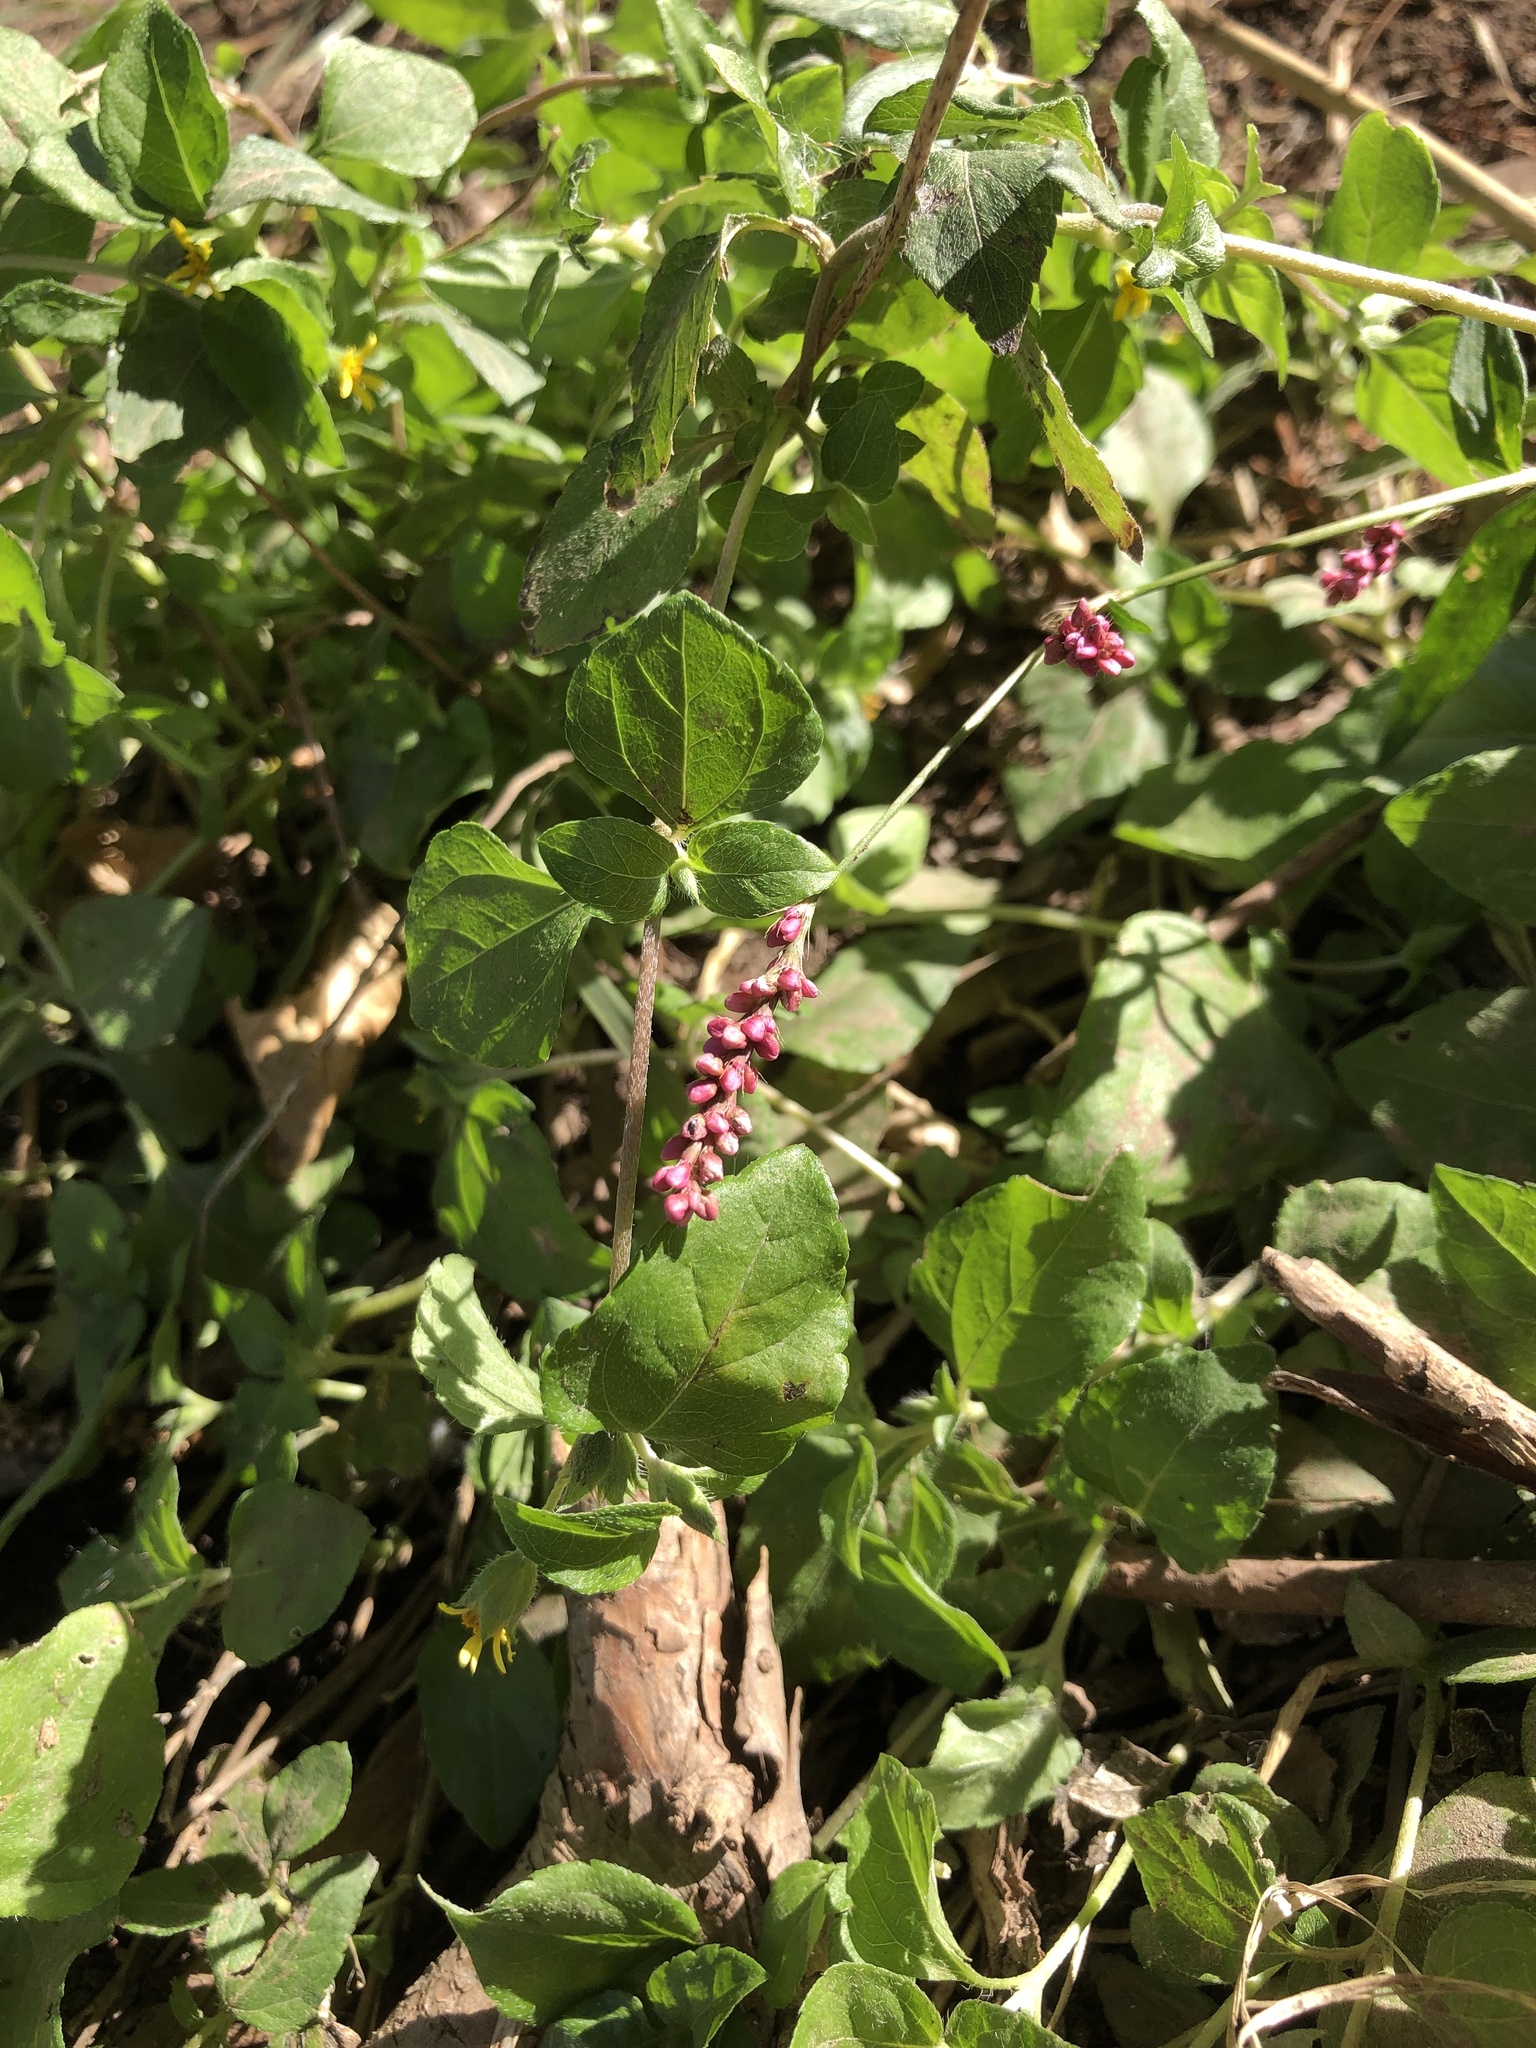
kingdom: Plantae
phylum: Tracheophyta
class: Magnoliopsida
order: Caryophyllales
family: Polygonaceae
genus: Persicaria
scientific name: Persicaria longiseta
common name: Bristly lady's-thumb
